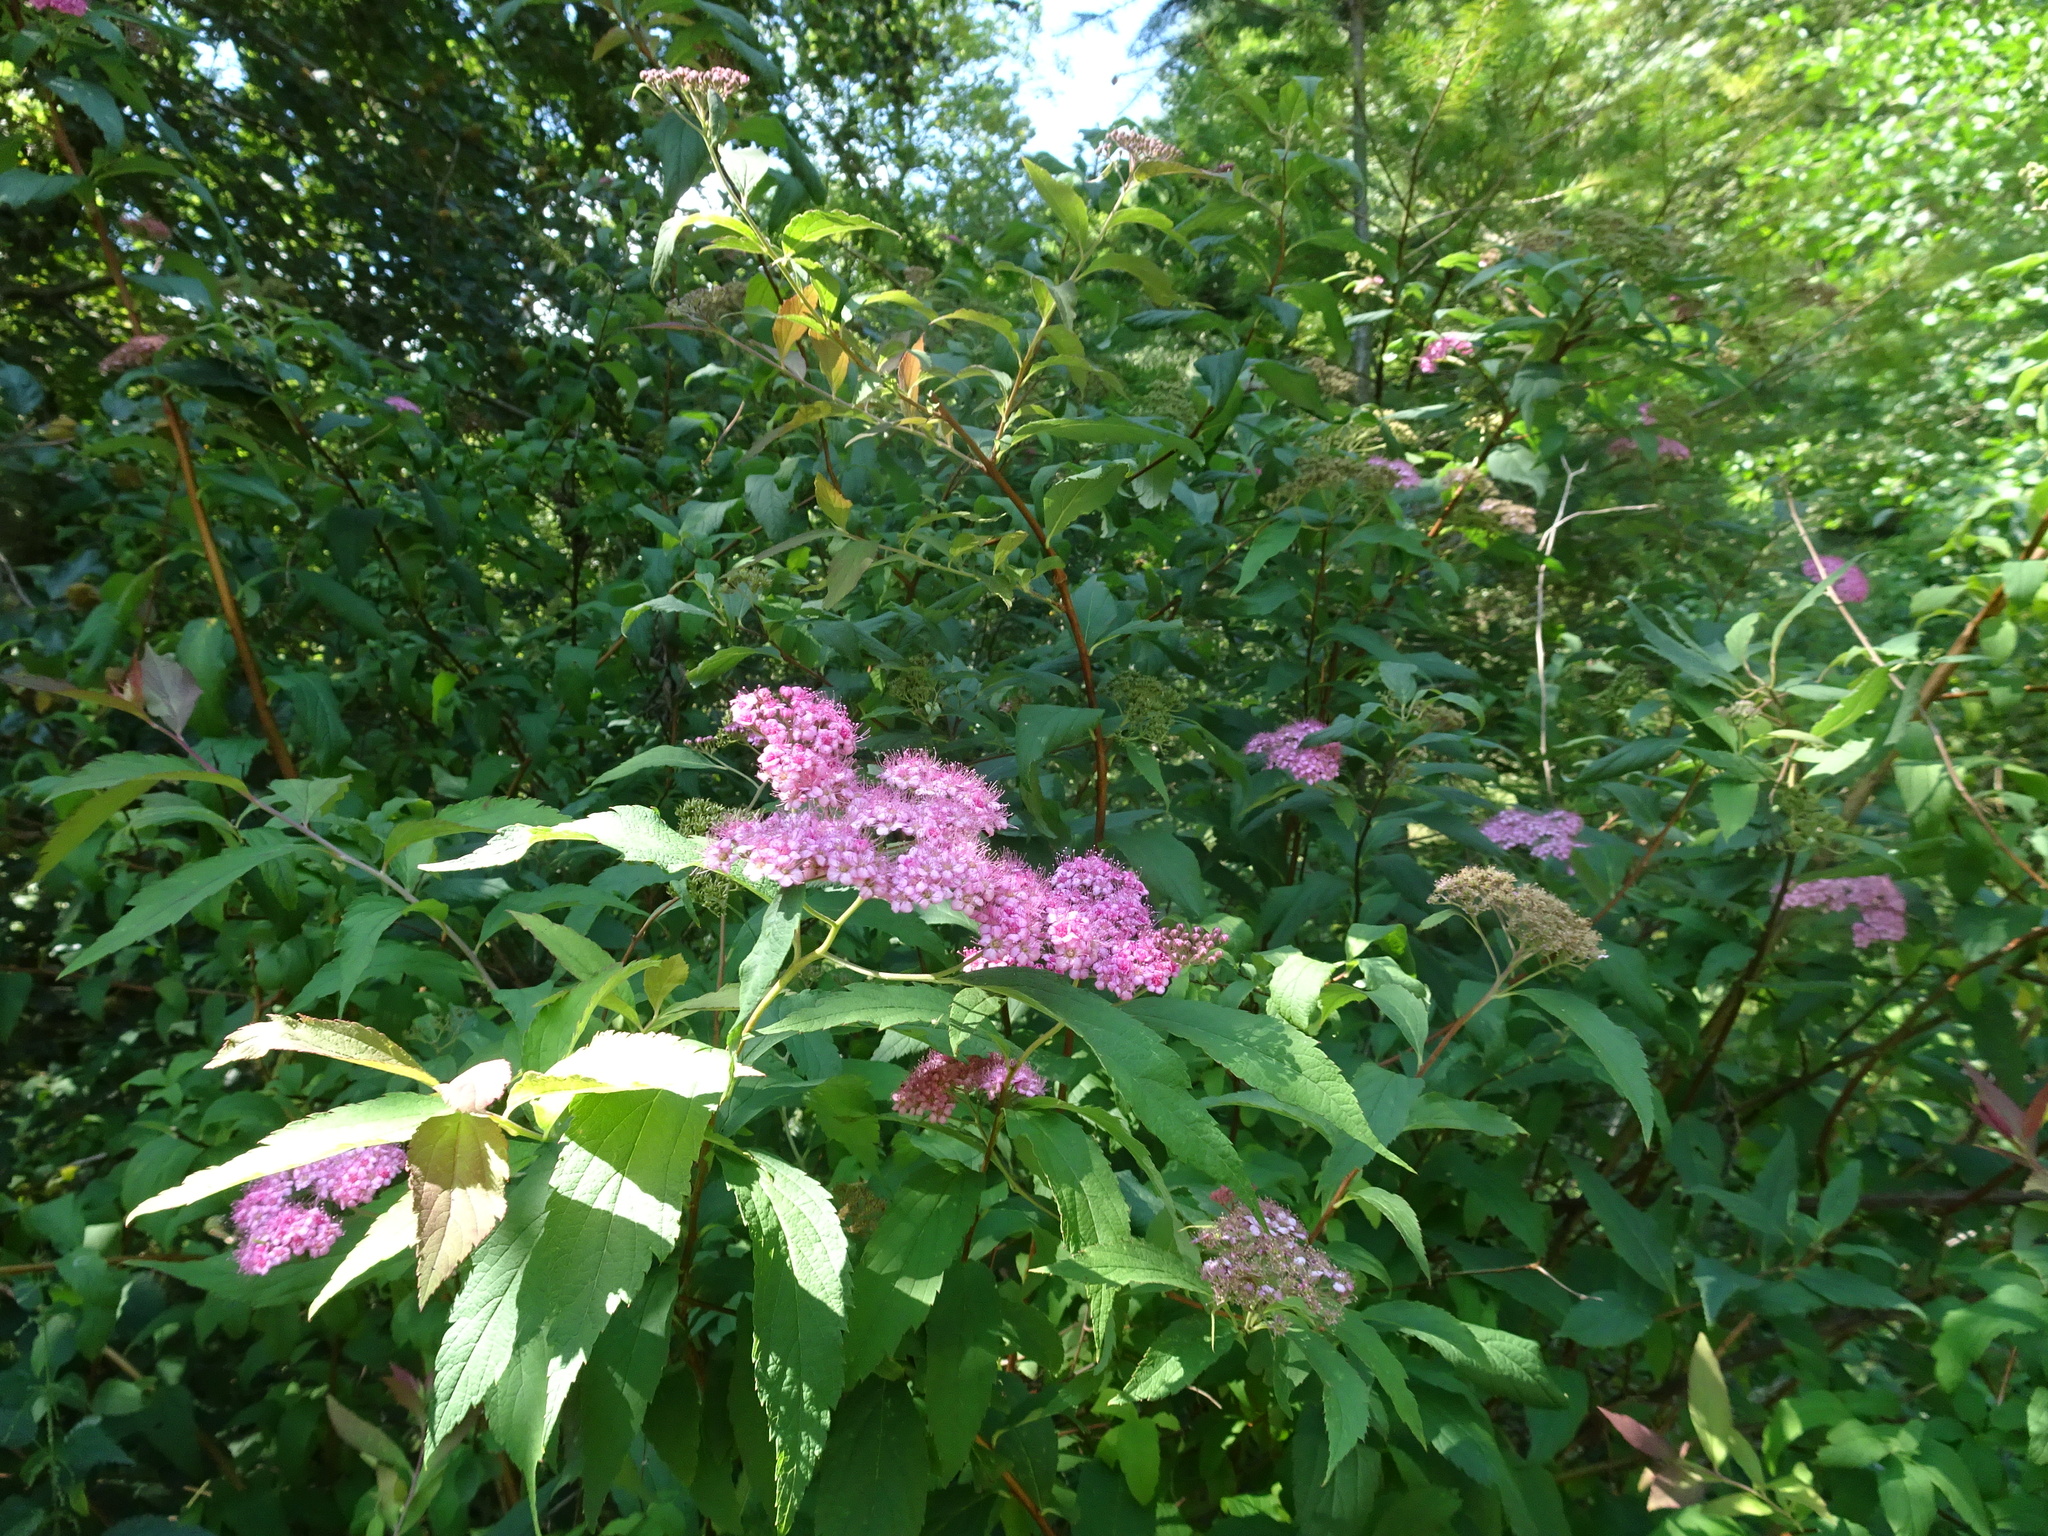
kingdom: Plantae
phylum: Tracheophyta
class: Magnoliopsida
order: Rosales
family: Rosaceae
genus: Spiraea
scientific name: Spiraea japonica
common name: Japanese spiraea
